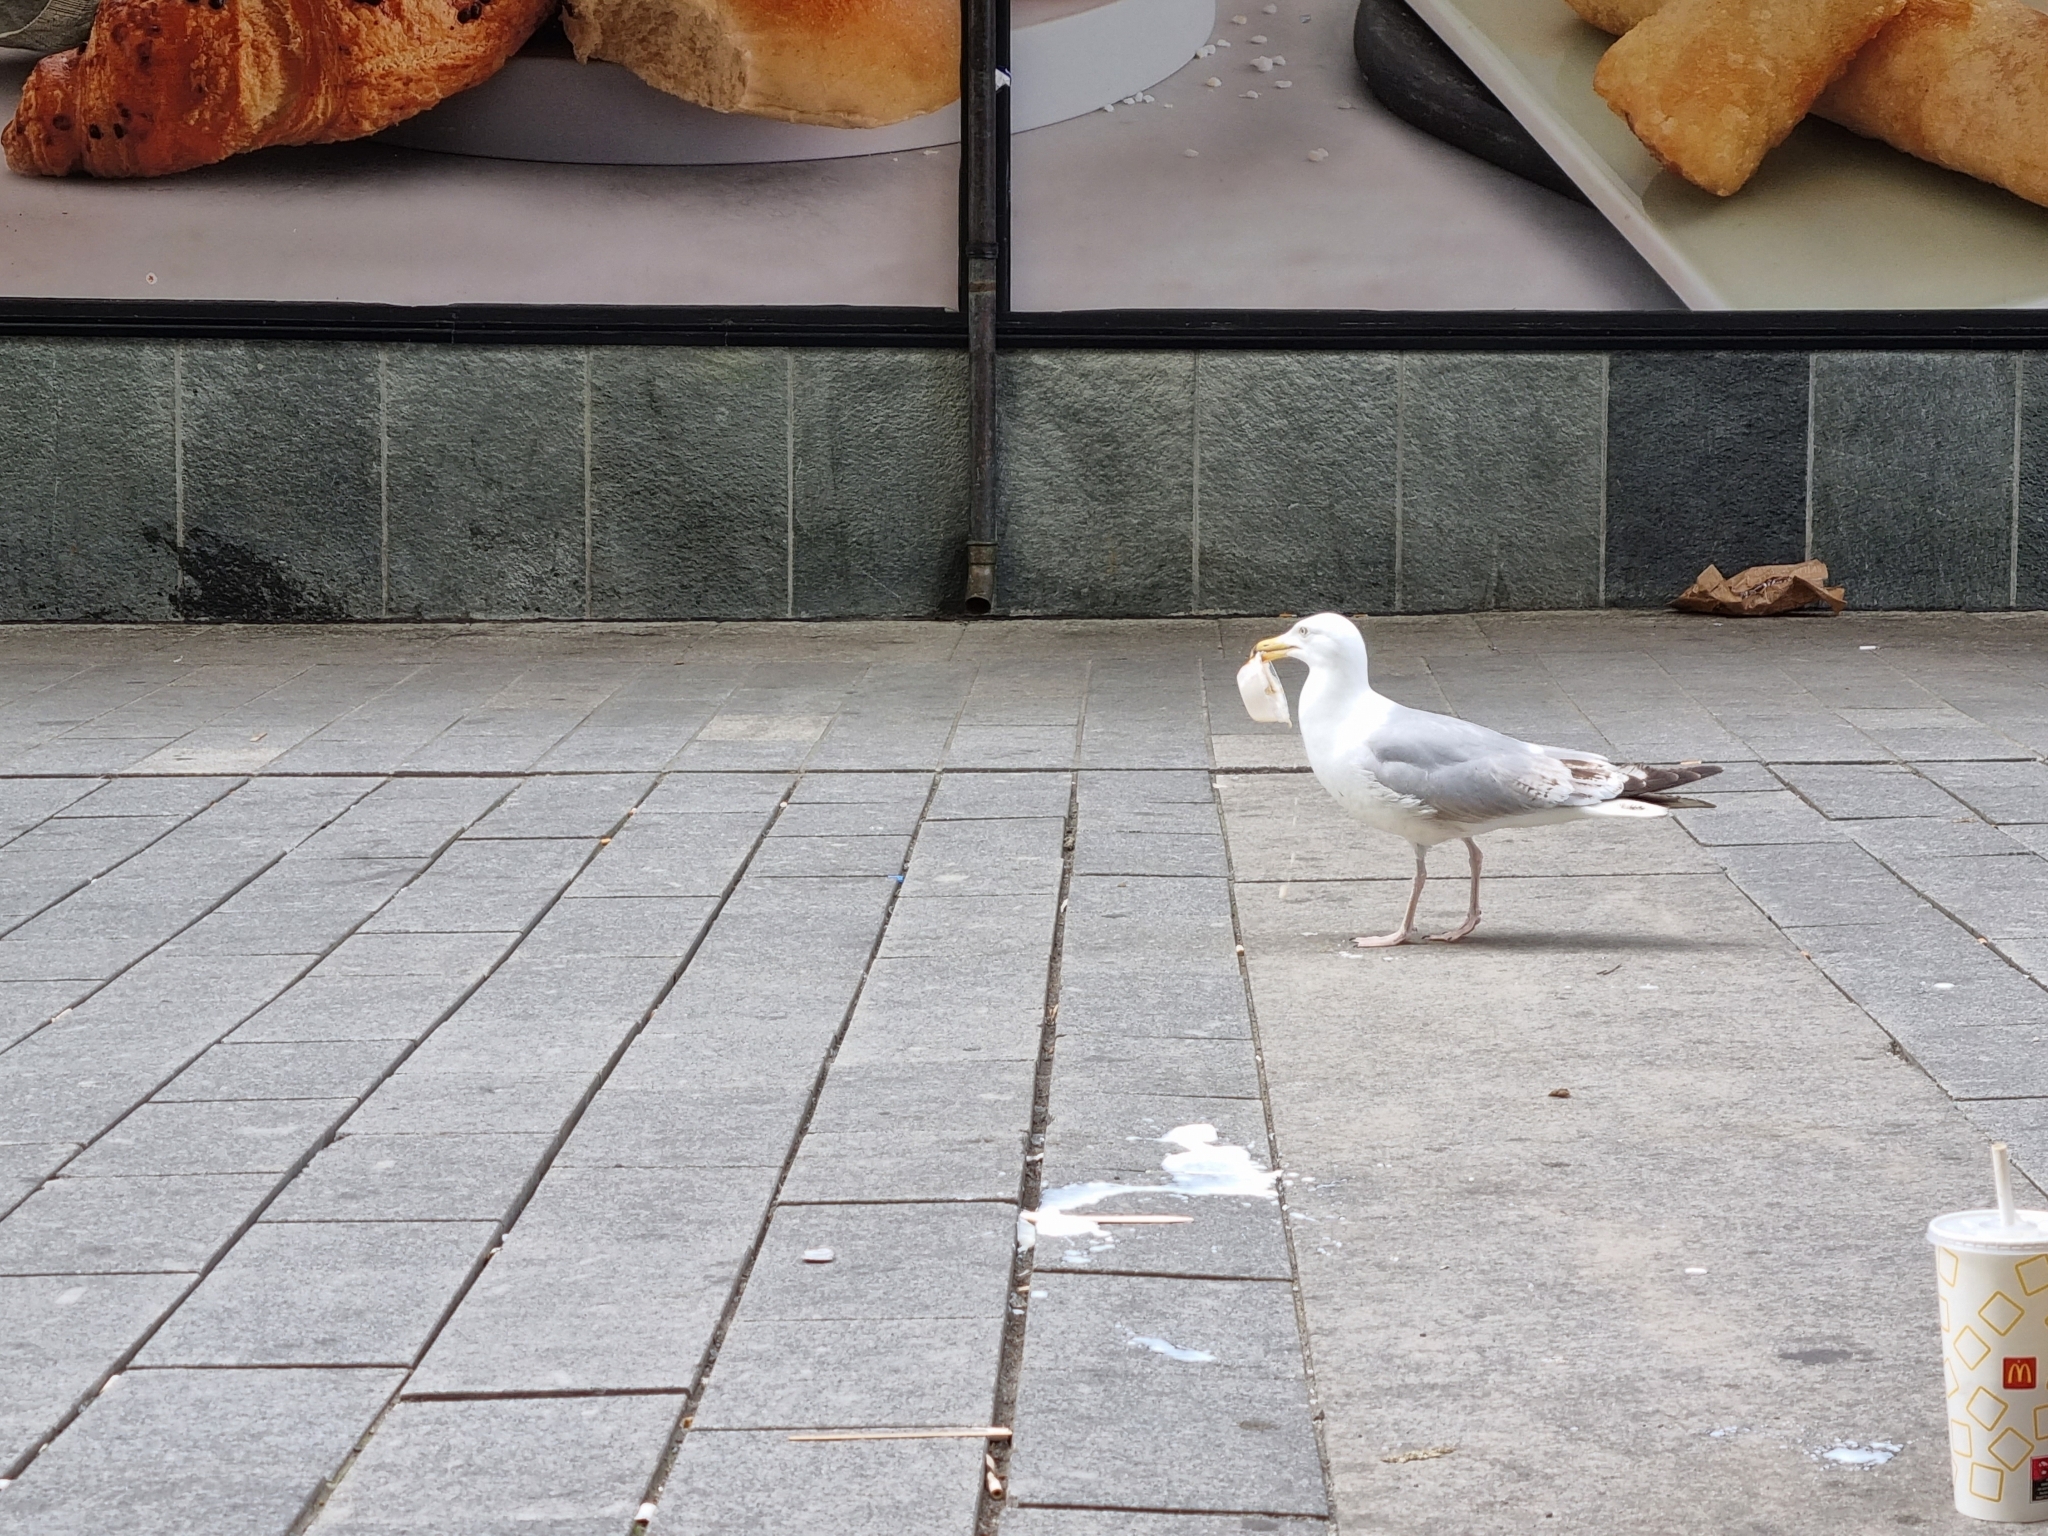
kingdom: Animalia
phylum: Chordata
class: Aves
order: Charadriiformes
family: Laridae
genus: Larus
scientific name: Larus argentatus
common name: Herring gull
